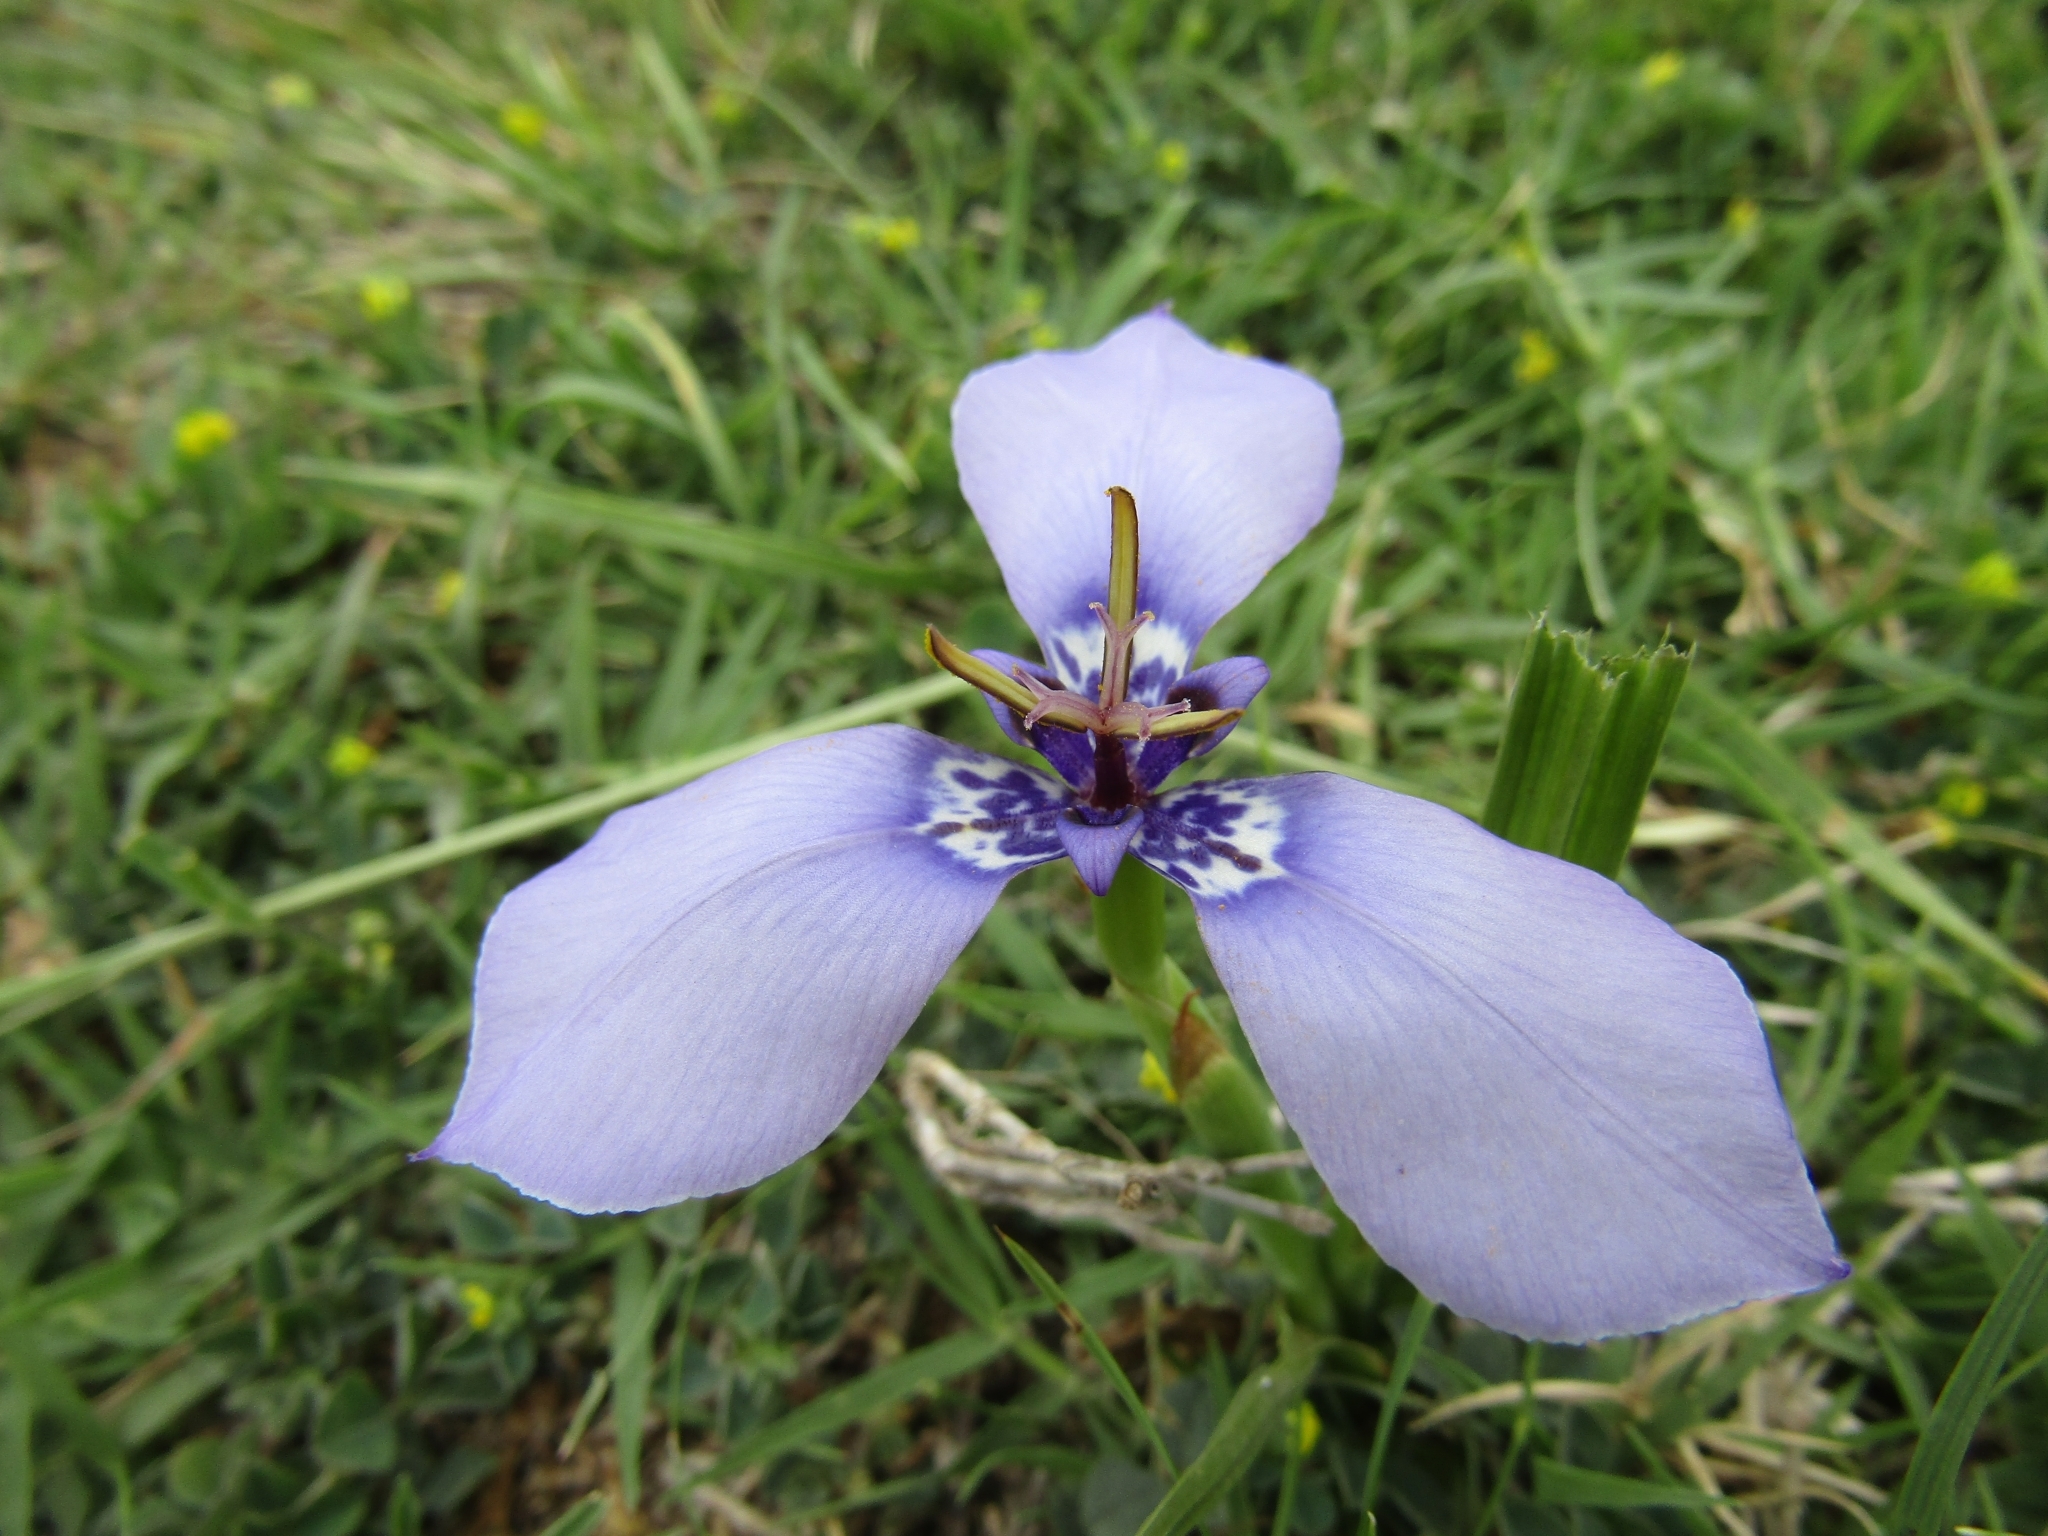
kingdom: Plantae
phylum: Tracheophyta
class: Liliopsida
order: Asparagales
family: Iridaceae
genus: Herbertia
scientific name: Herbertia lahue
